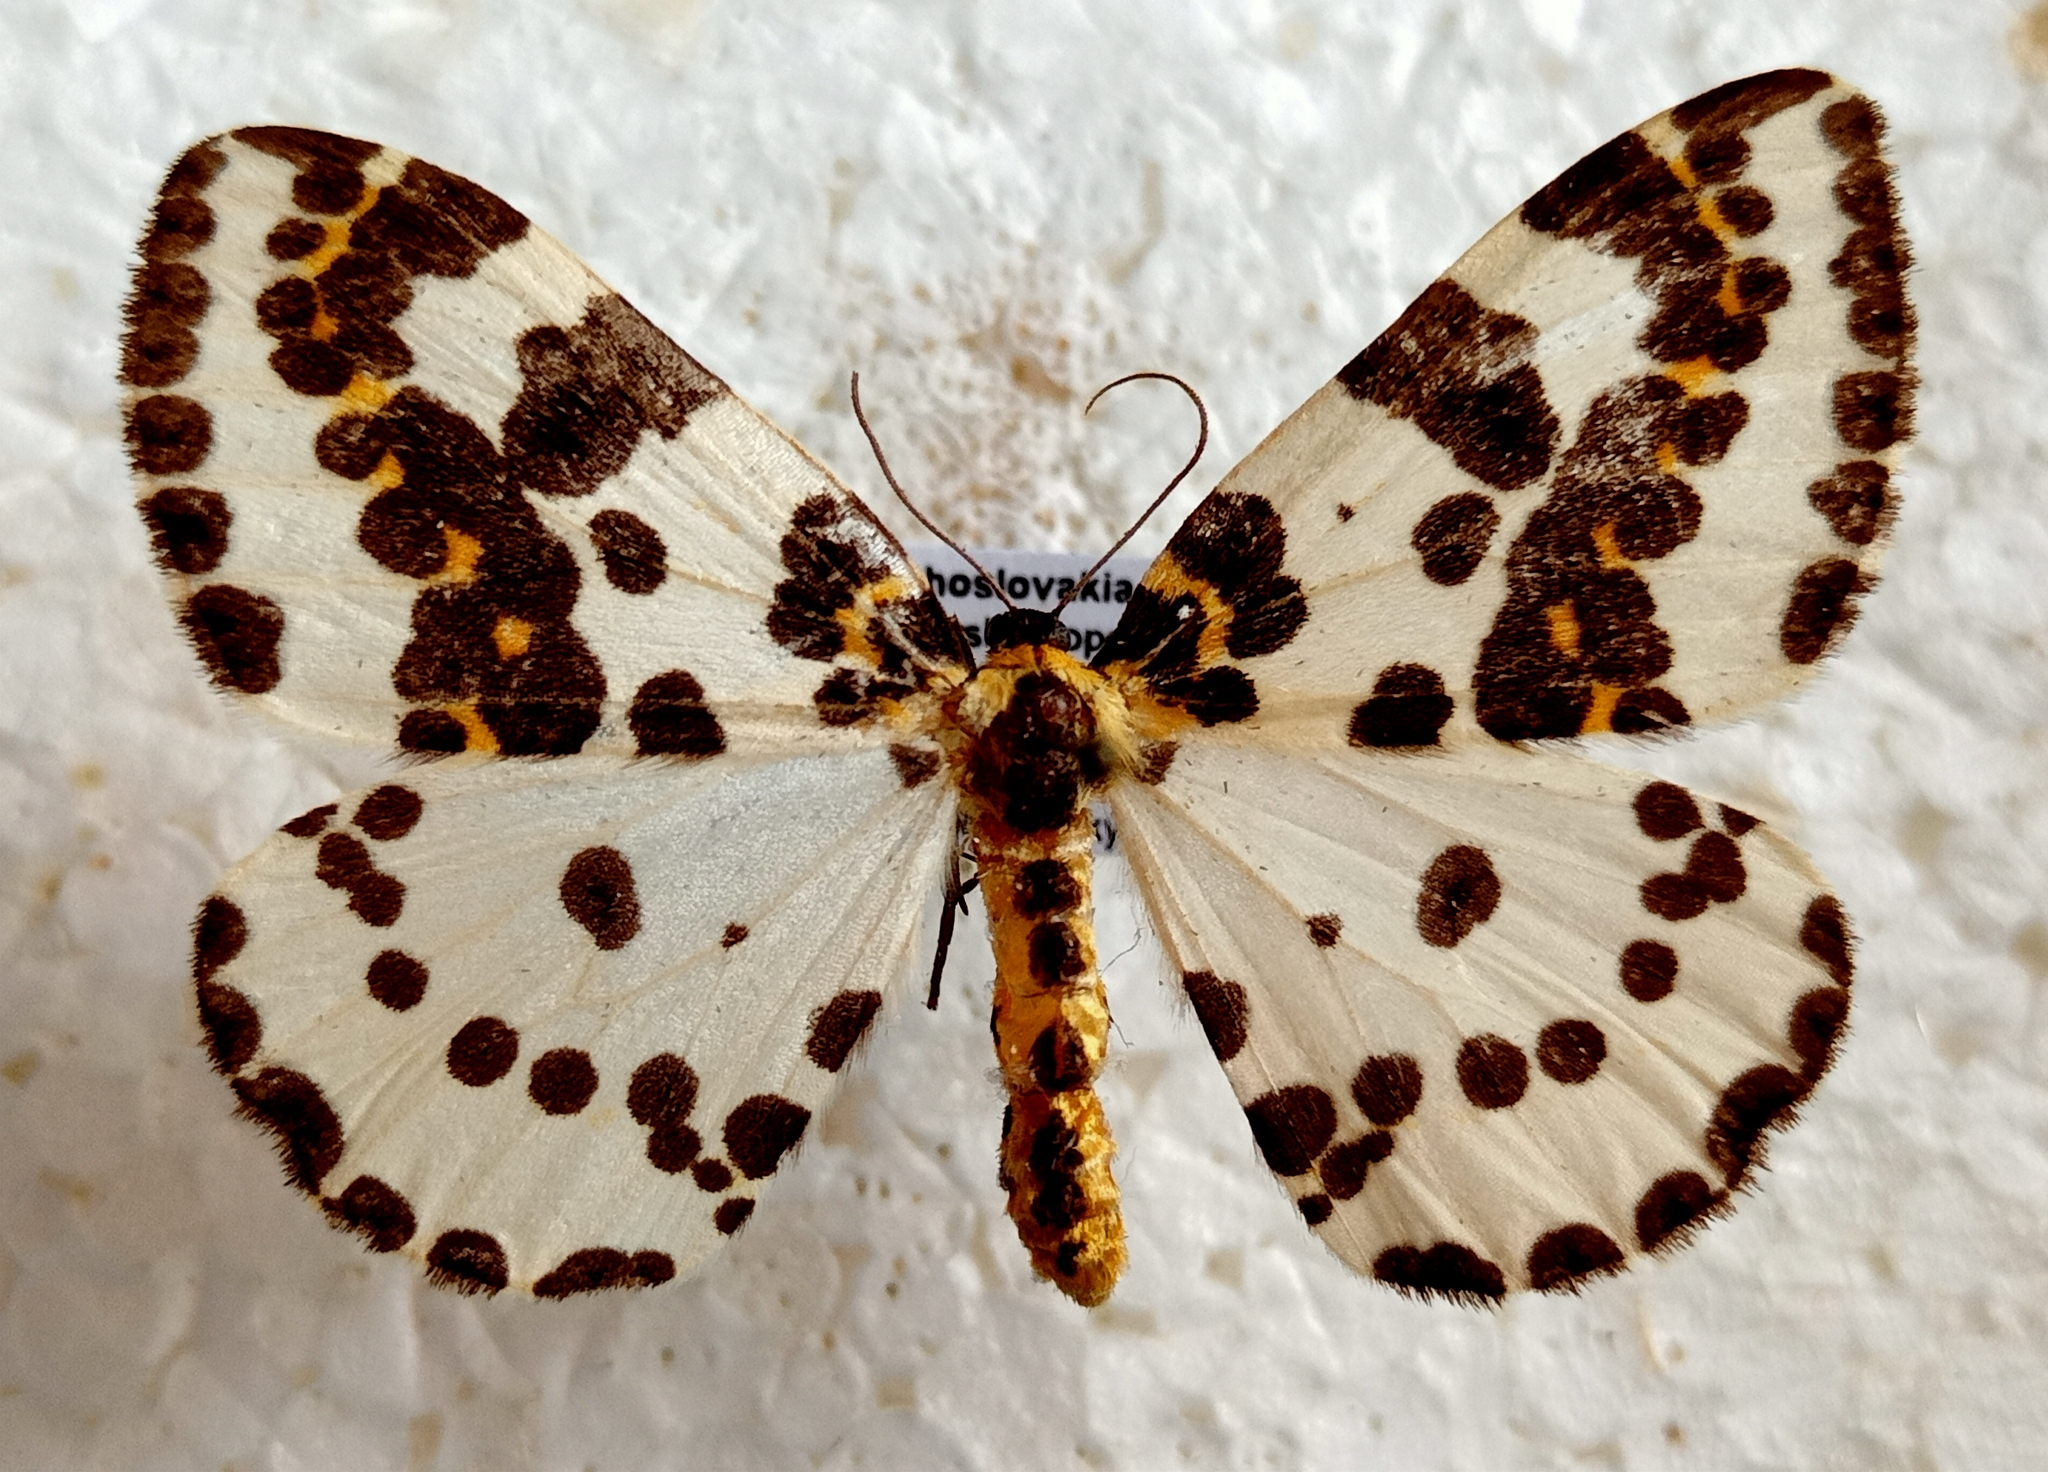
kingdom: Animalia
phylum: Arthropoda
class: Insecta
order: Lepidoptera
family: Geometridae
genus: Abraxas
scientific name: Abraxas grossulariata
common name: Magpie
